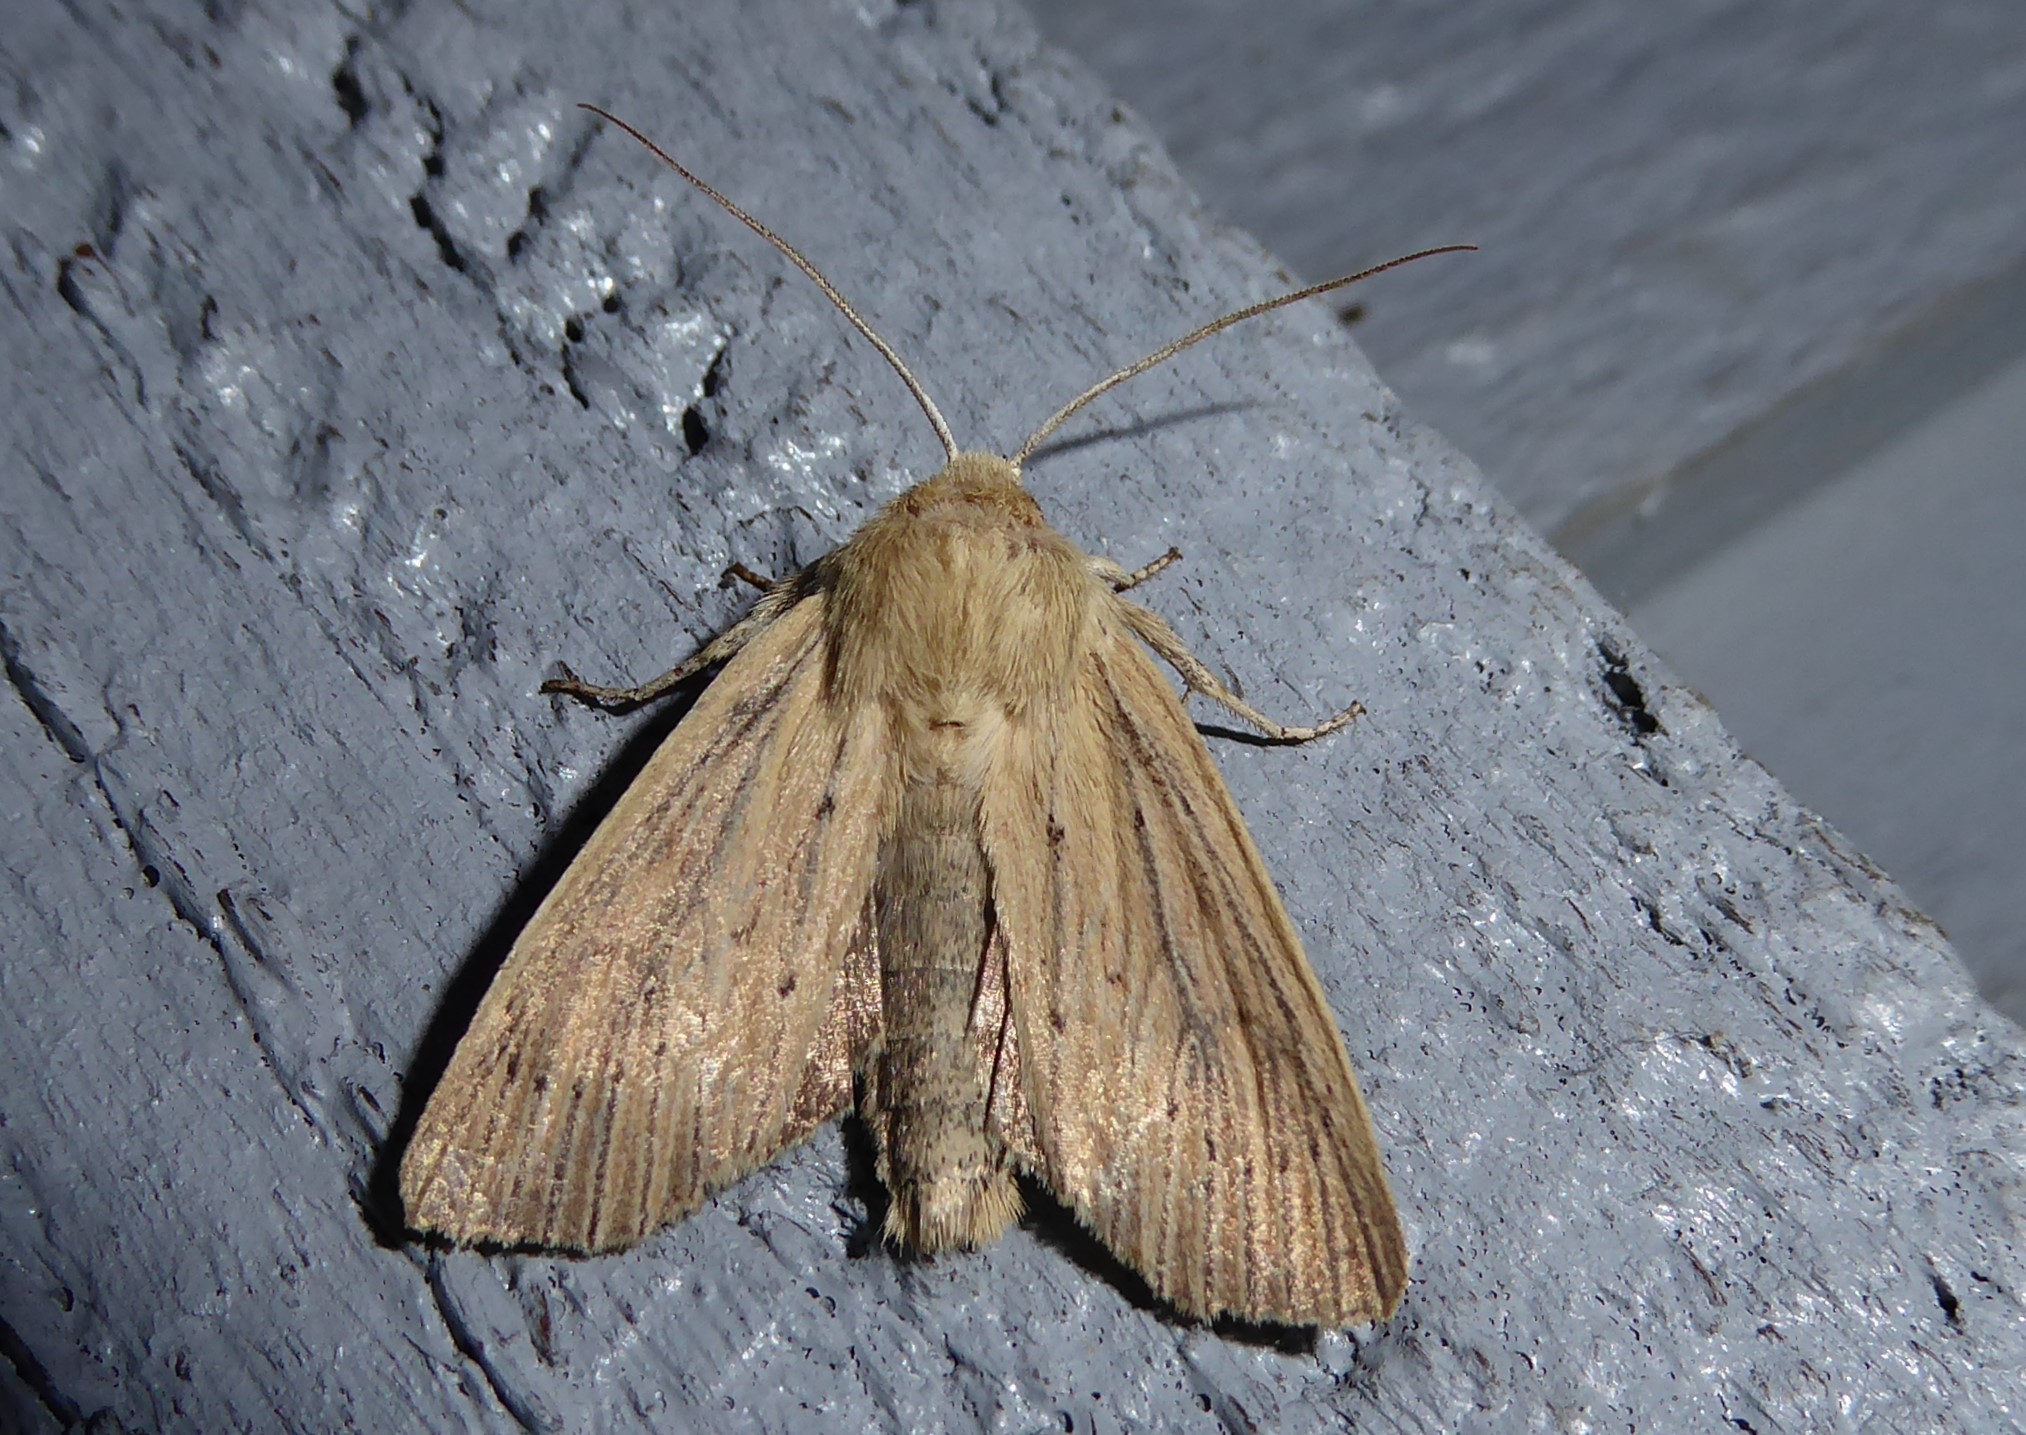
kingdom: Animalia
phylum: Arthropoda
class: Insecta
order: Lepidoptera
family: Noctuidae
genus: Ichneutica
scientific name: Ichneutica arotis
